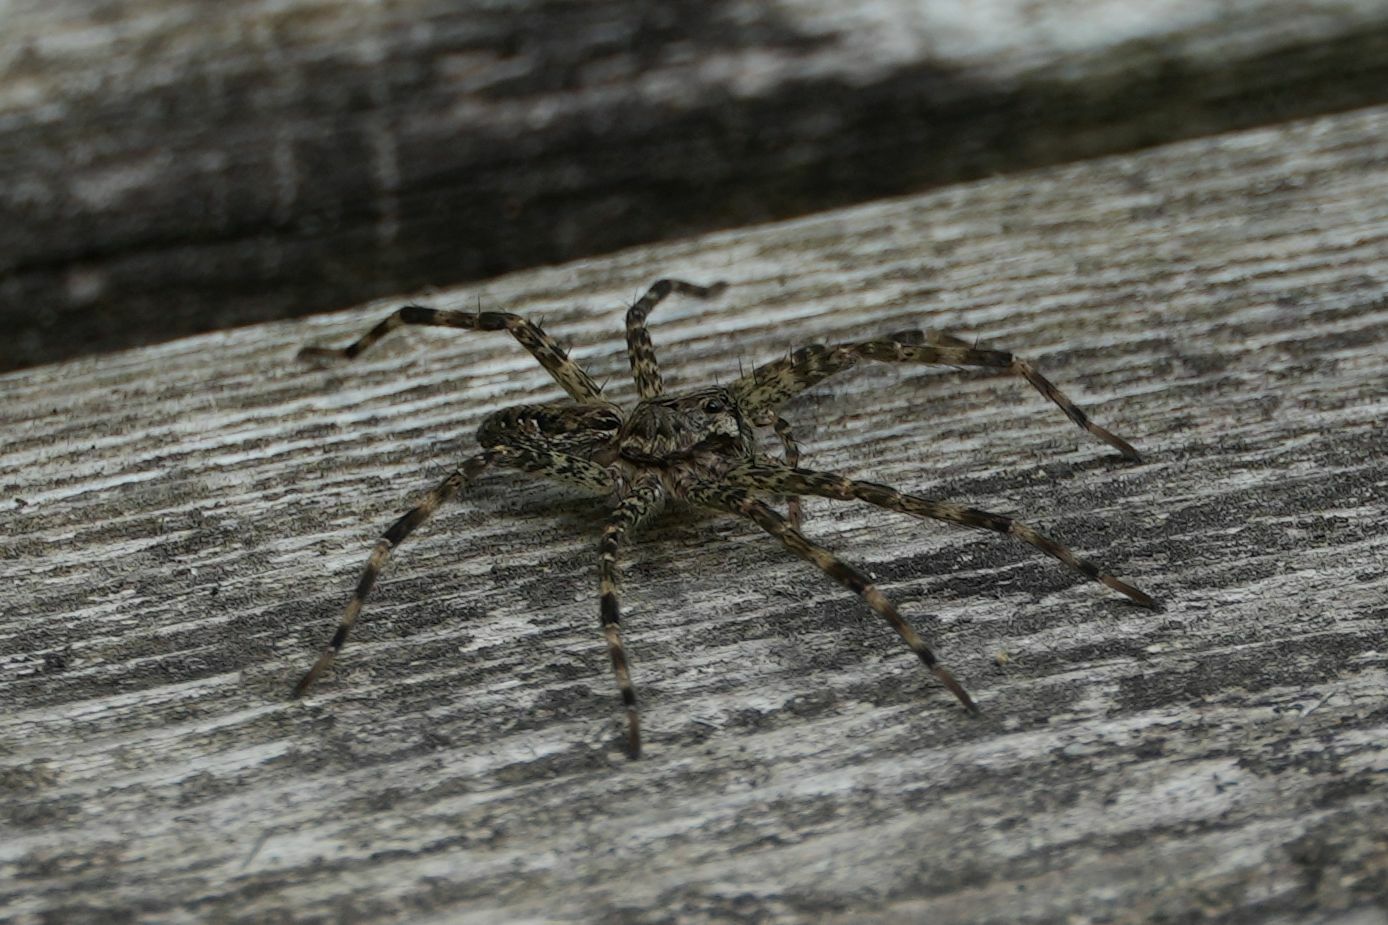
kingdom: Animalia
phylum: Arthropoda
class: Arachnida
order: Araneae
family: Pisauridae
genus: Dolomedes
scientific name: Dolomedes tenebrosus
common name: Dark fishing spider
